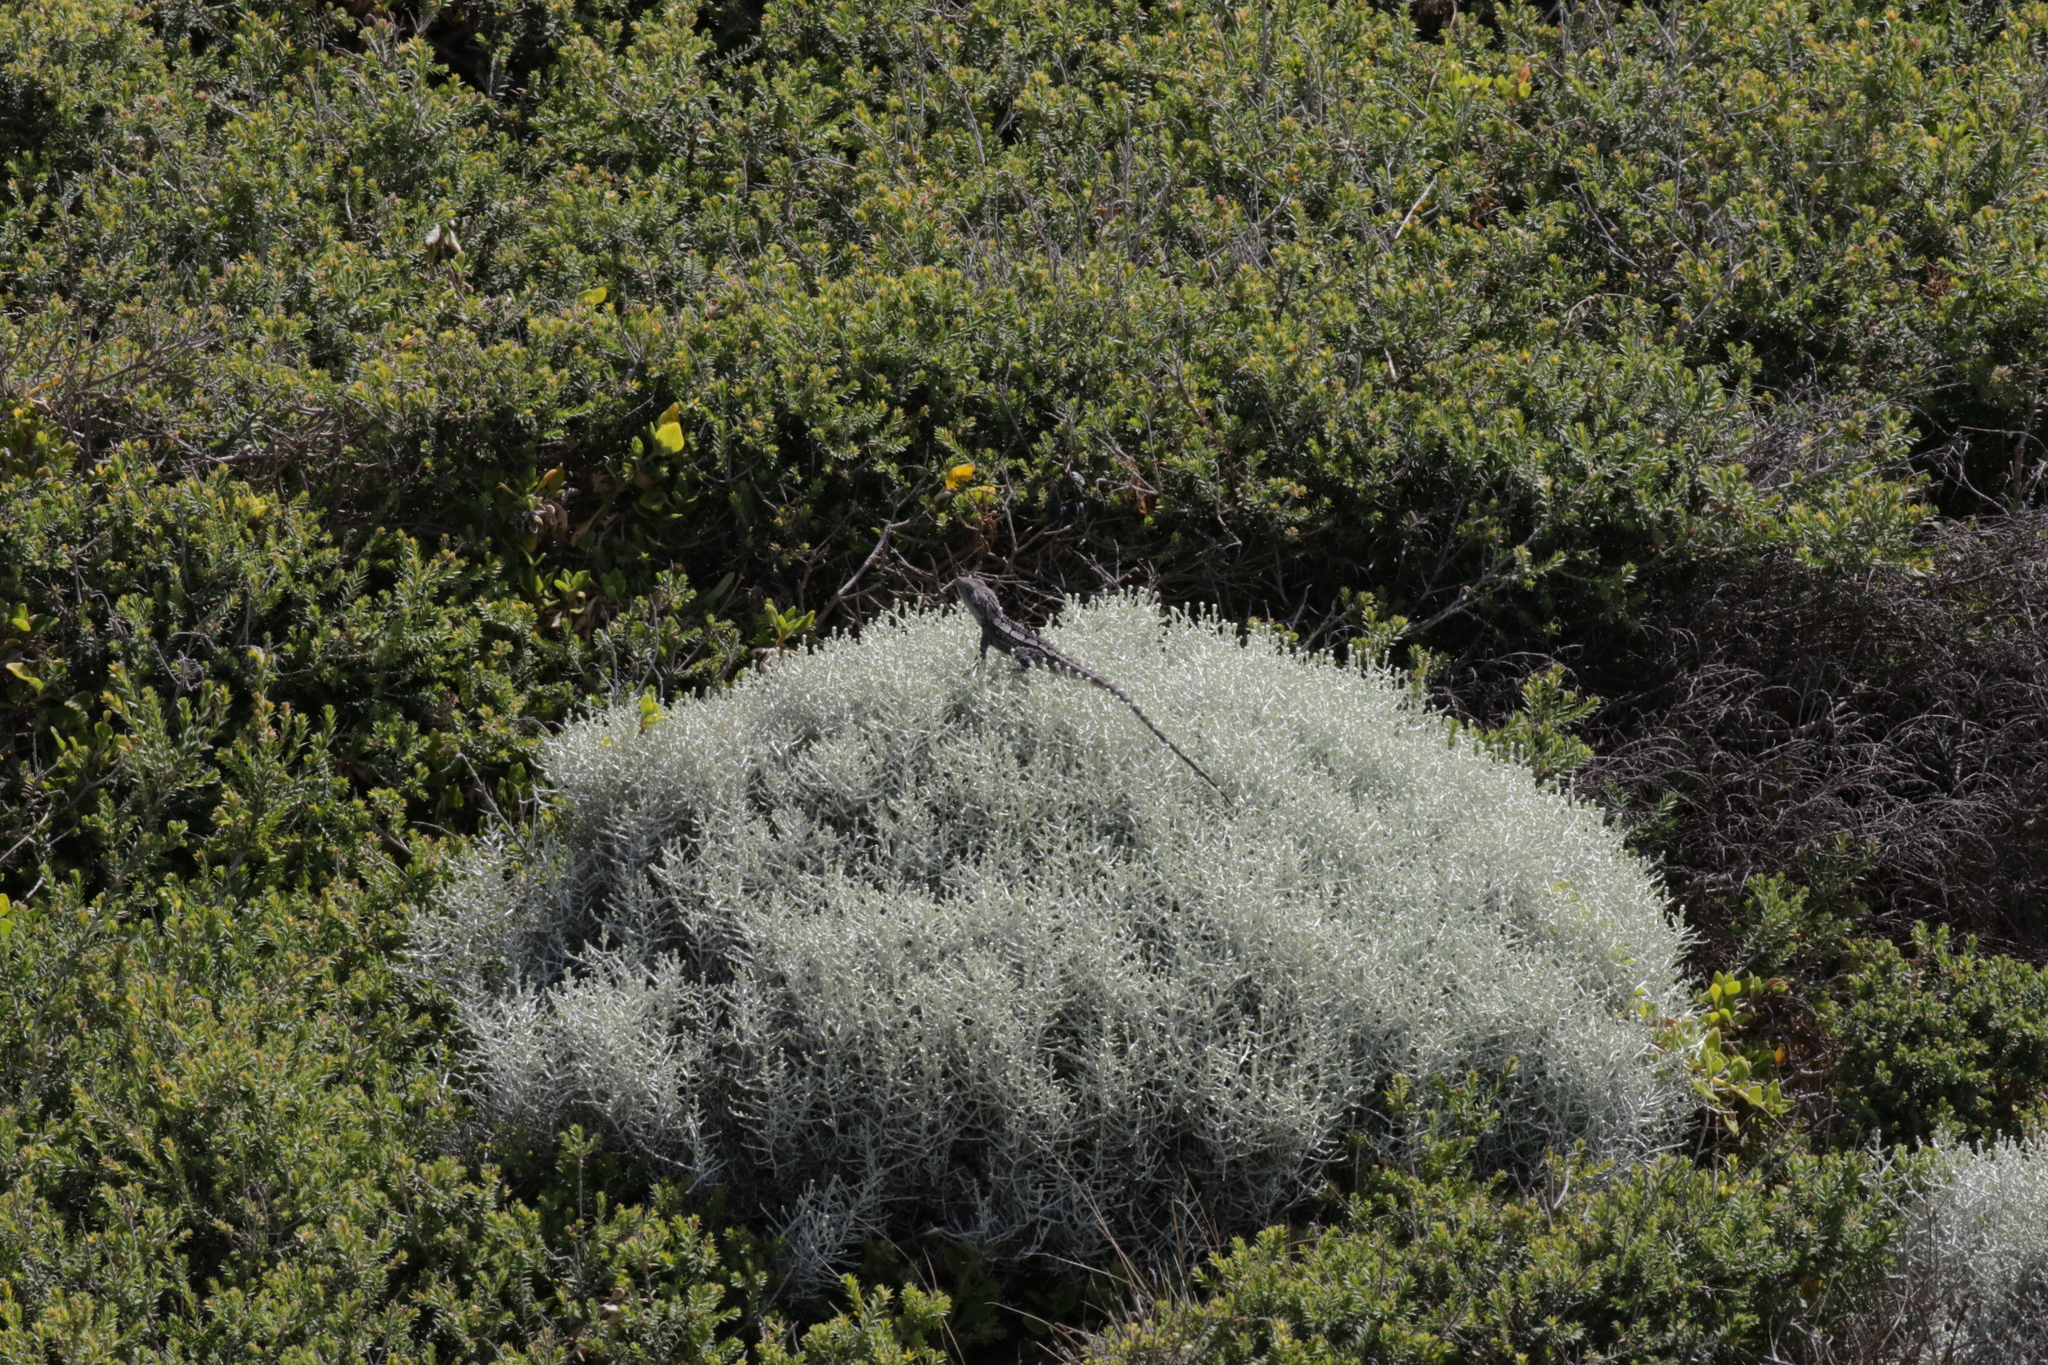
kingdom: Animalia
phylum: Chordata
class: Squamata
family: Agamidae
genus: Amphibolurus
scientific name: Amphibolurus muricatus
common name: Jacky lizard
